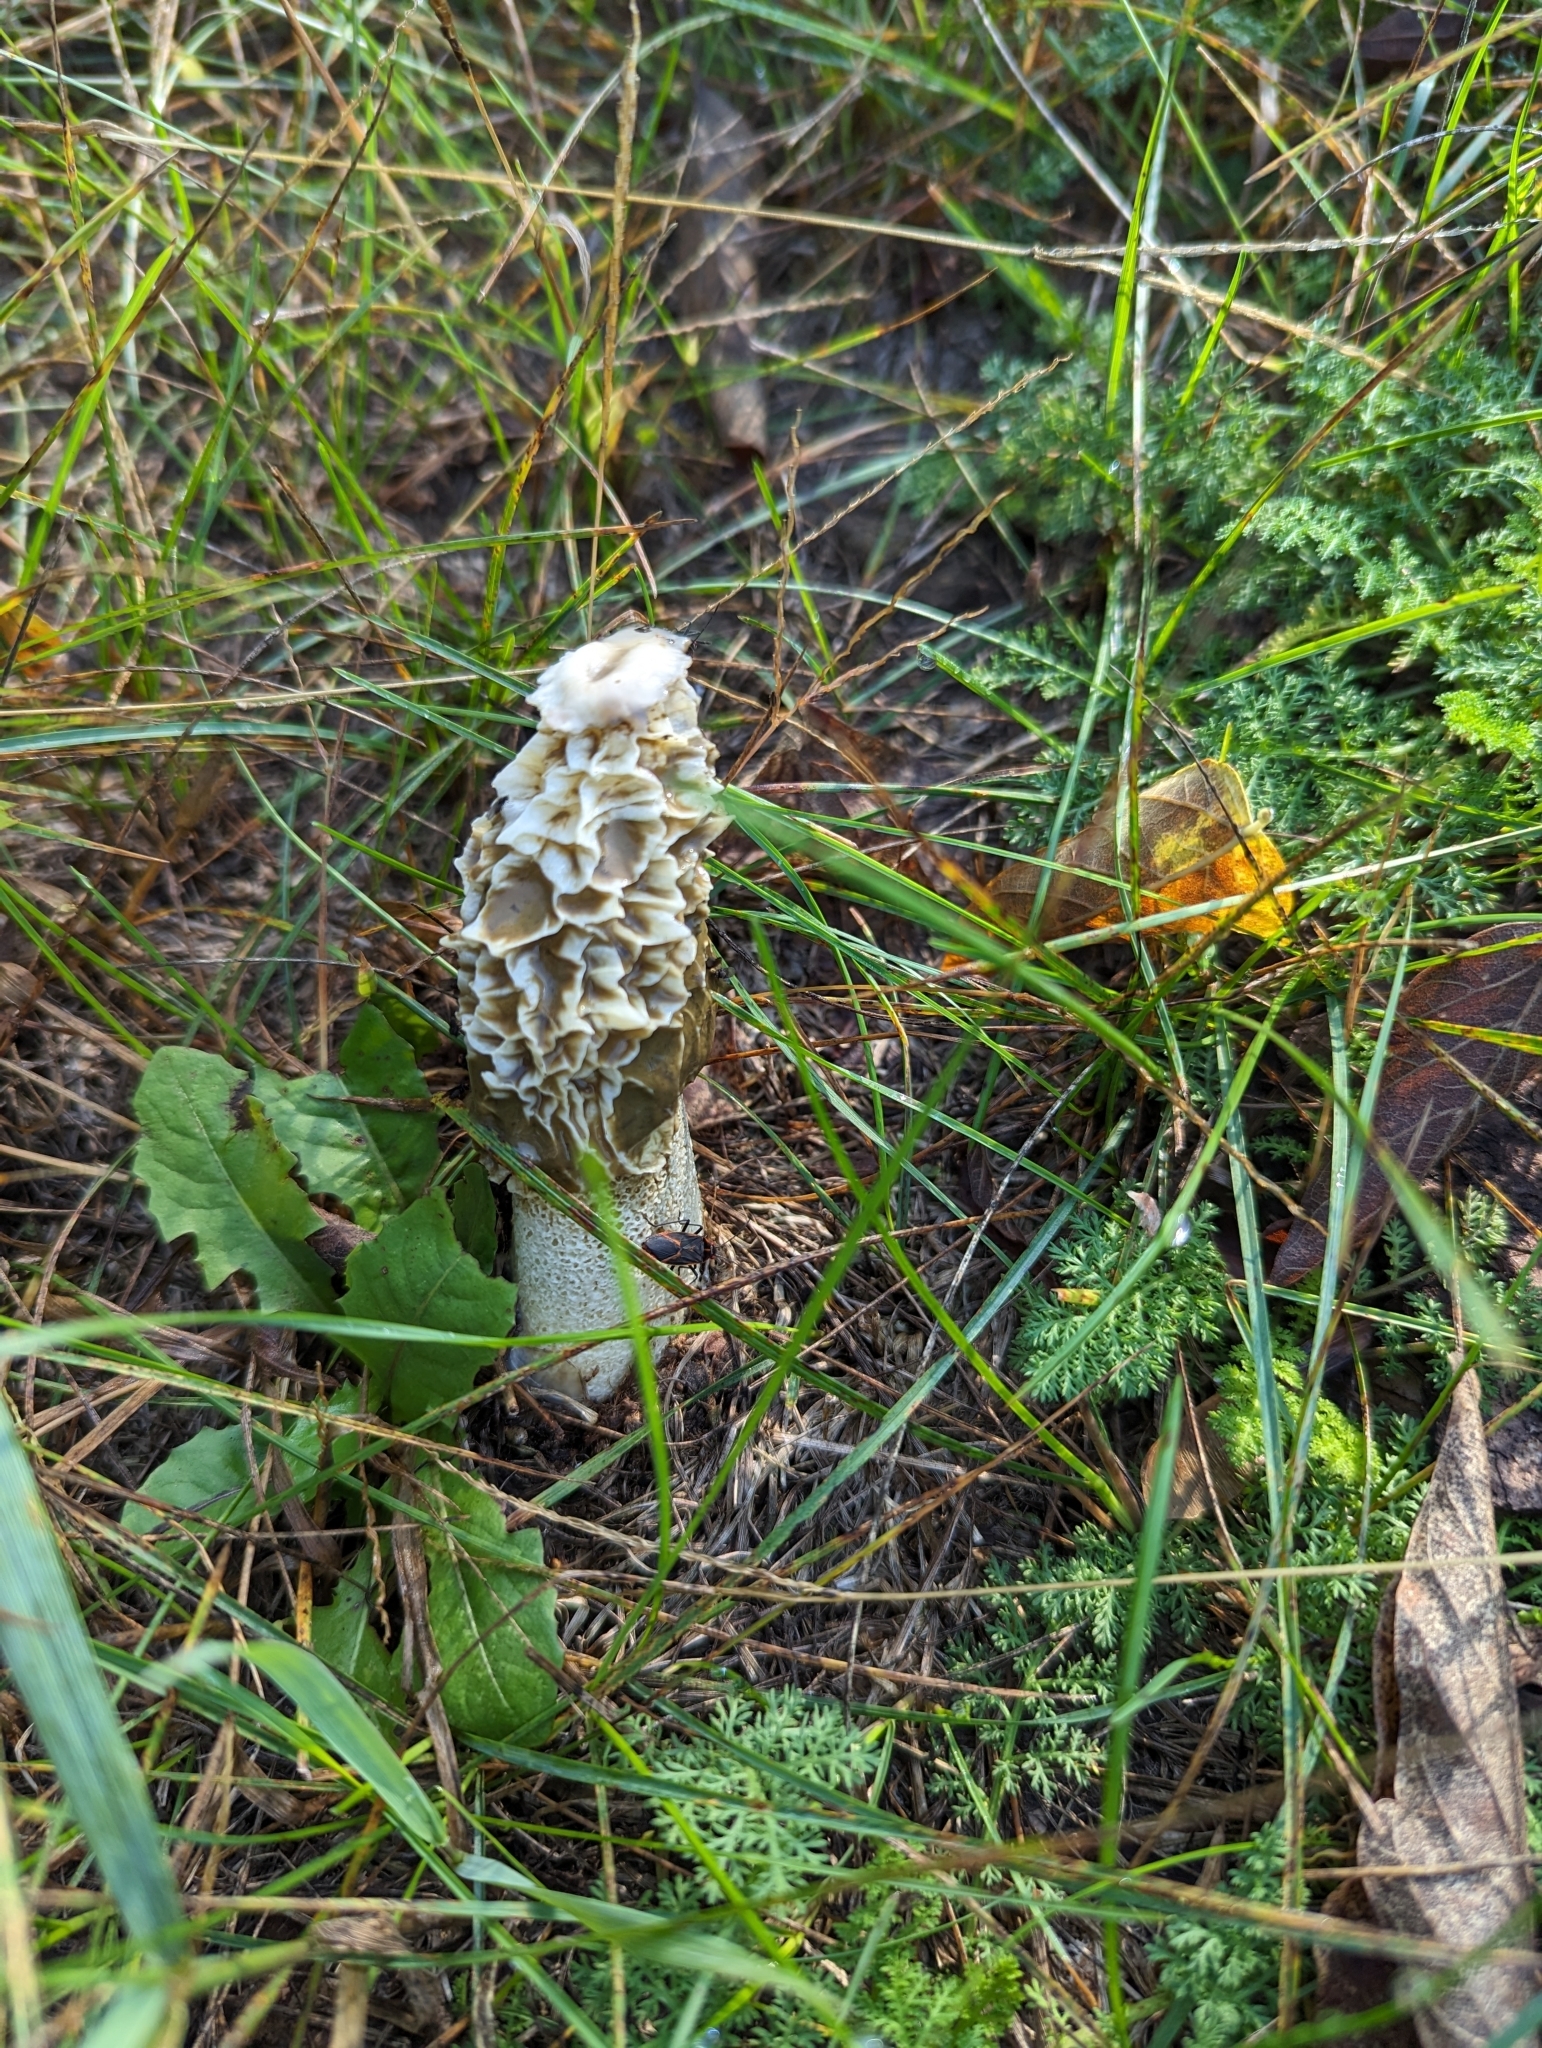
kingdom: Fungi
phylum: Basidiomycota
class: Agaricomycetes
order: Phallales
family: Phallaceae
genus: Phallus
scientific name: Phallus impudicus
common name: Common stinkhorn
